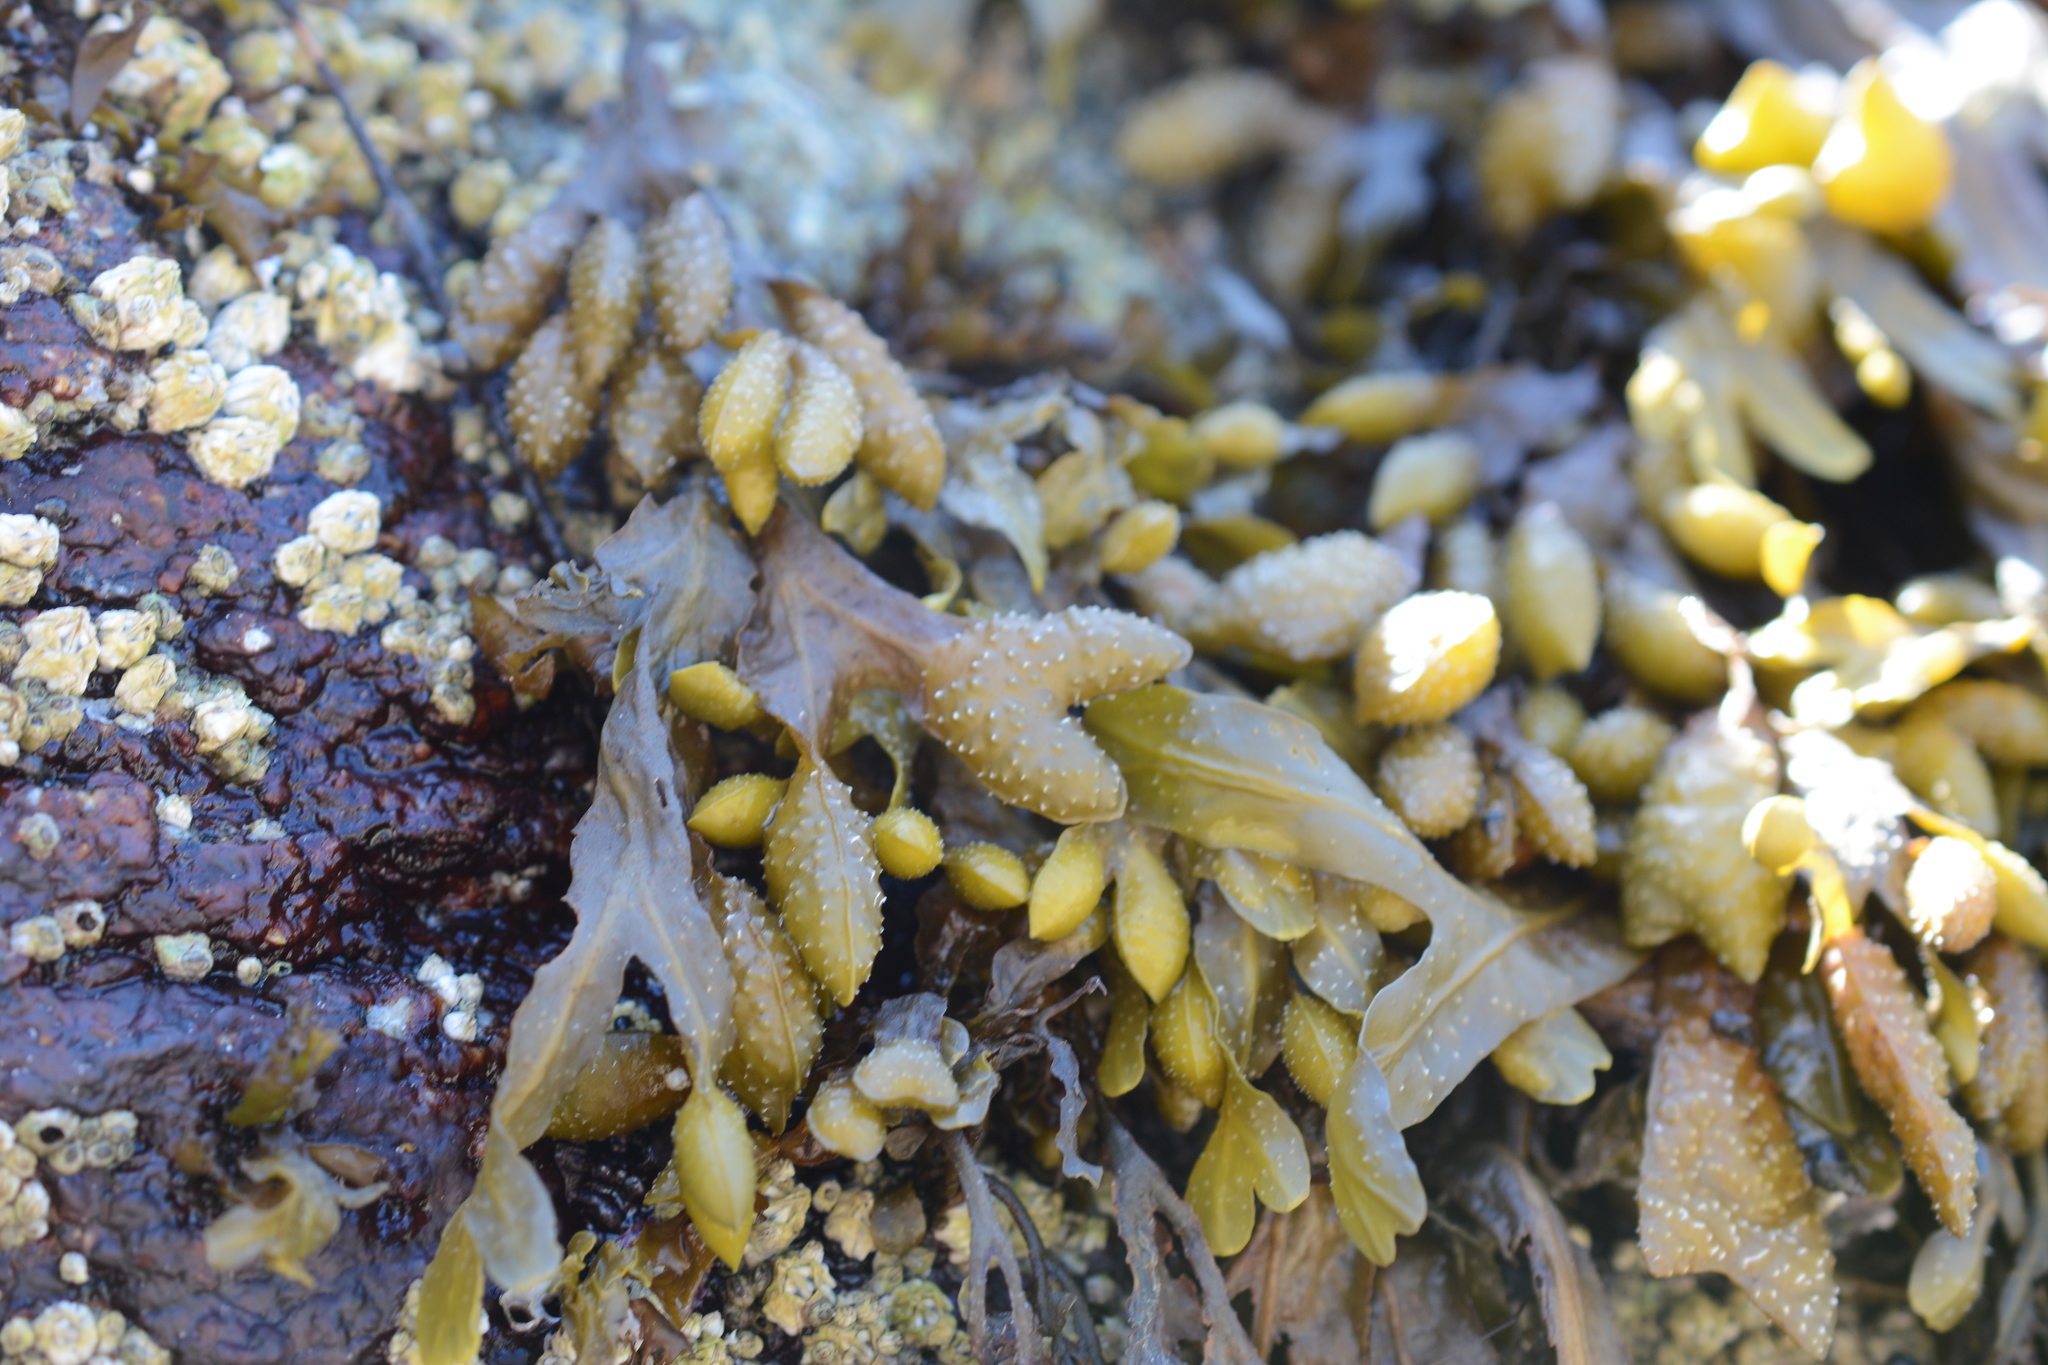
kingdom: Chromista
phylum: Ochrophyta
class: Phaeophyceae
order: Fucales
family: Fucaceae
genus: Fucus
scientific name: Fucus distichus
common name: Rockweed
